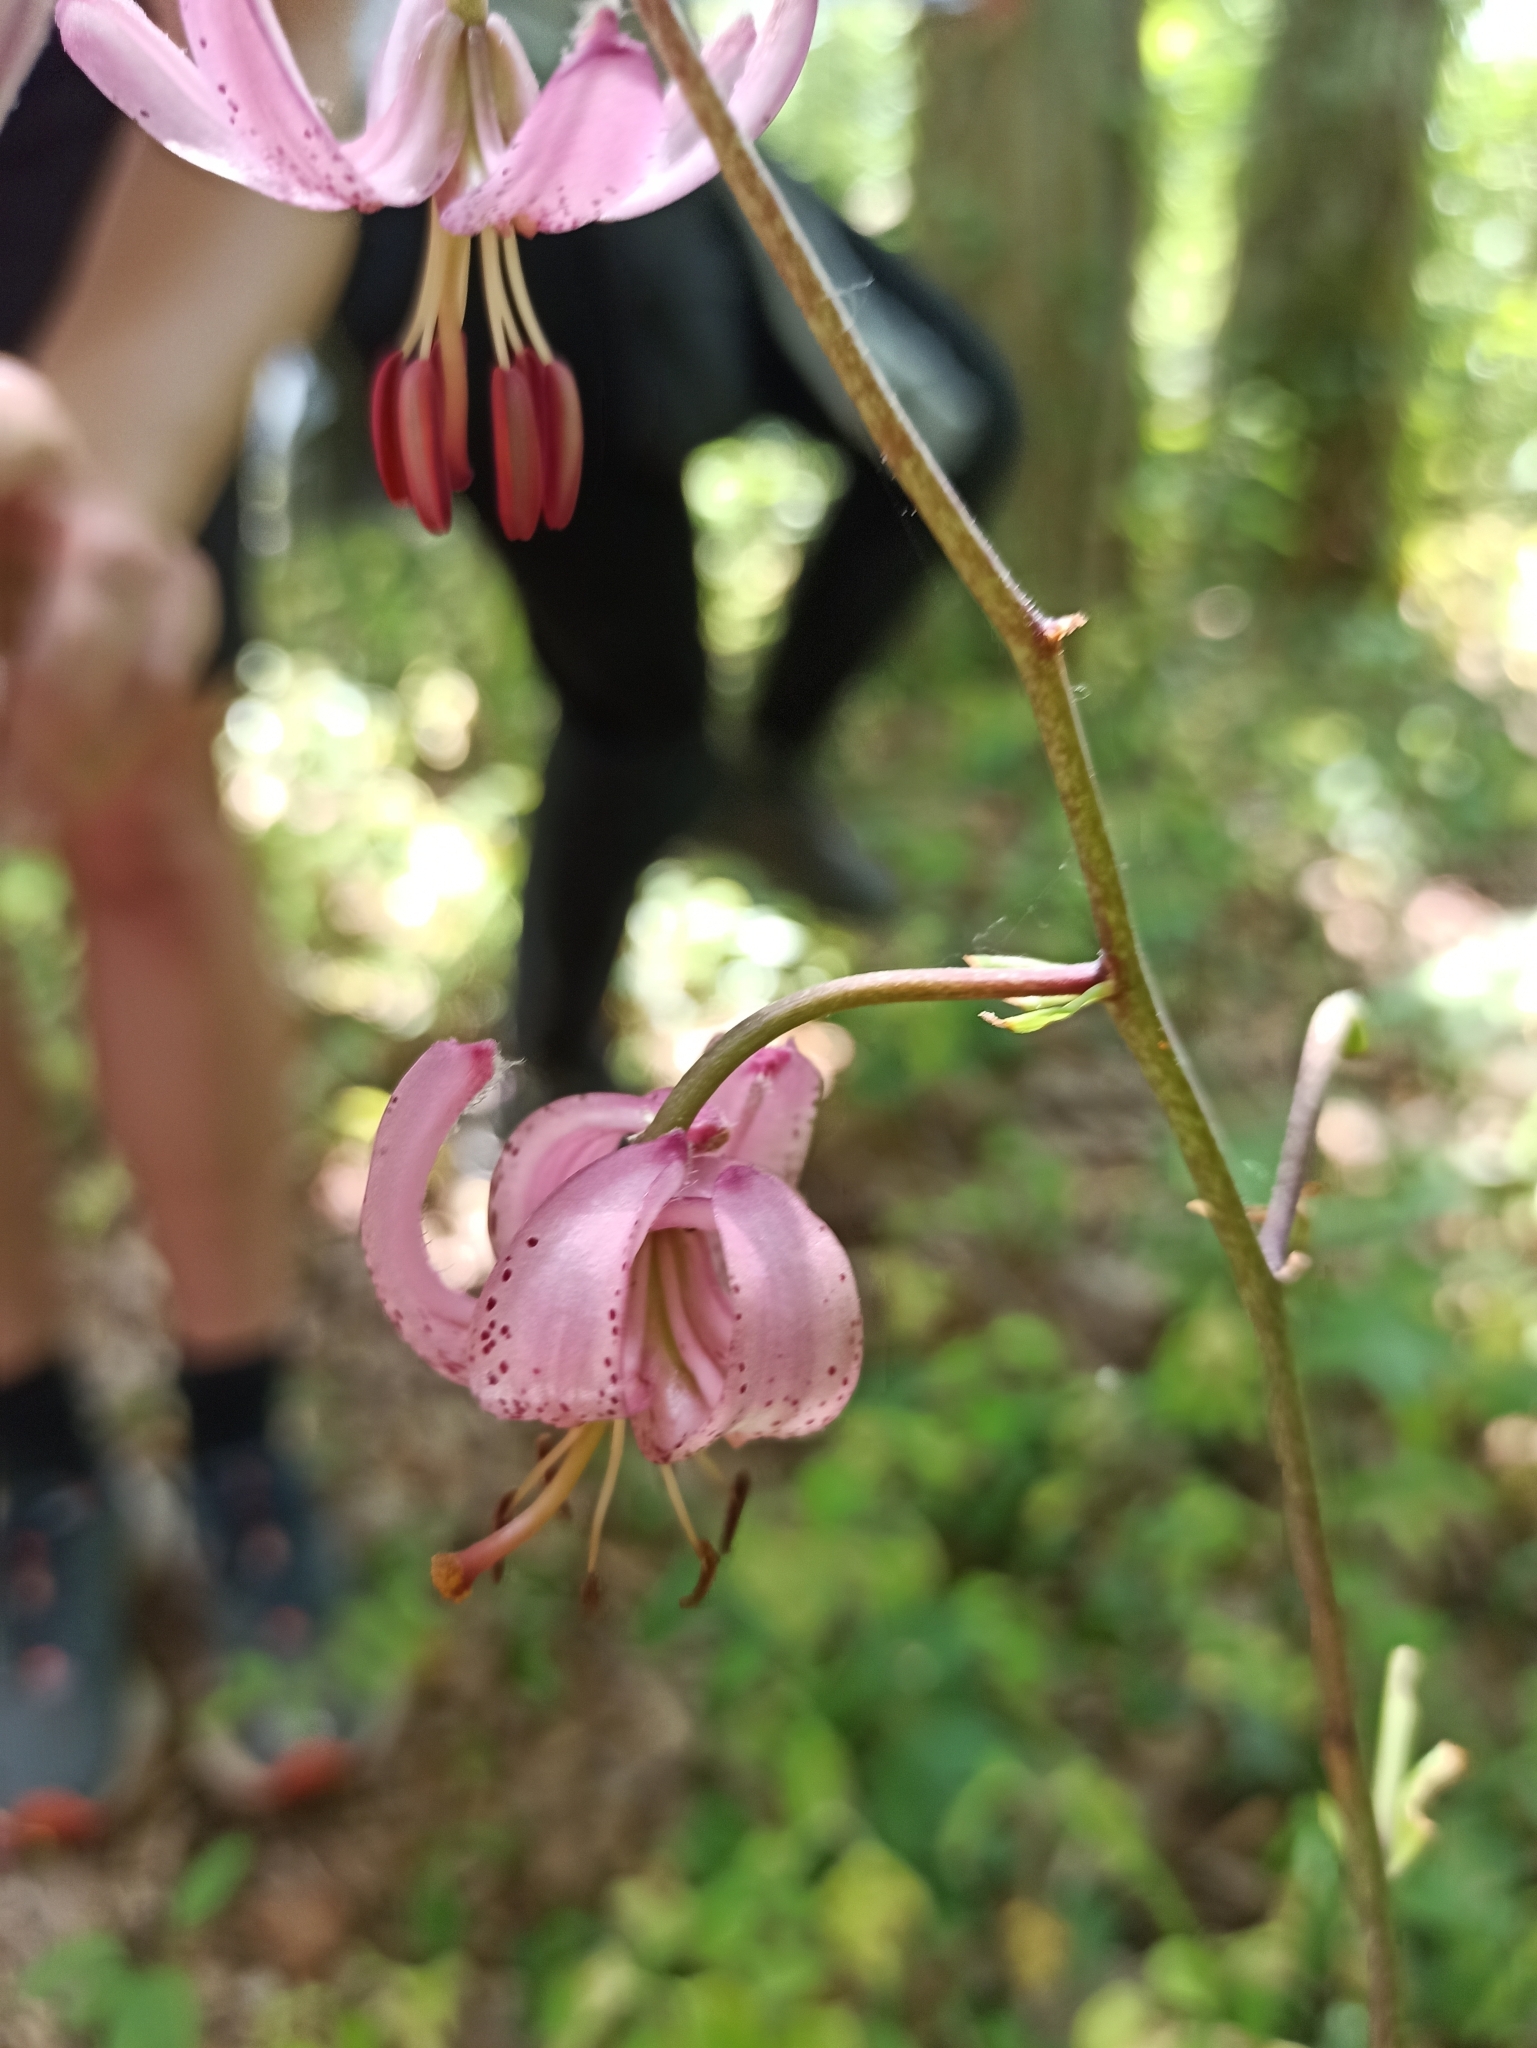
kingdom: Plantae
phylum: Tracheophyta
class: Liliopsida
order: Liliales
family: Liliaceae
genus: Lilium
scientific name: Lilium martagon
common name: Martagon lily
